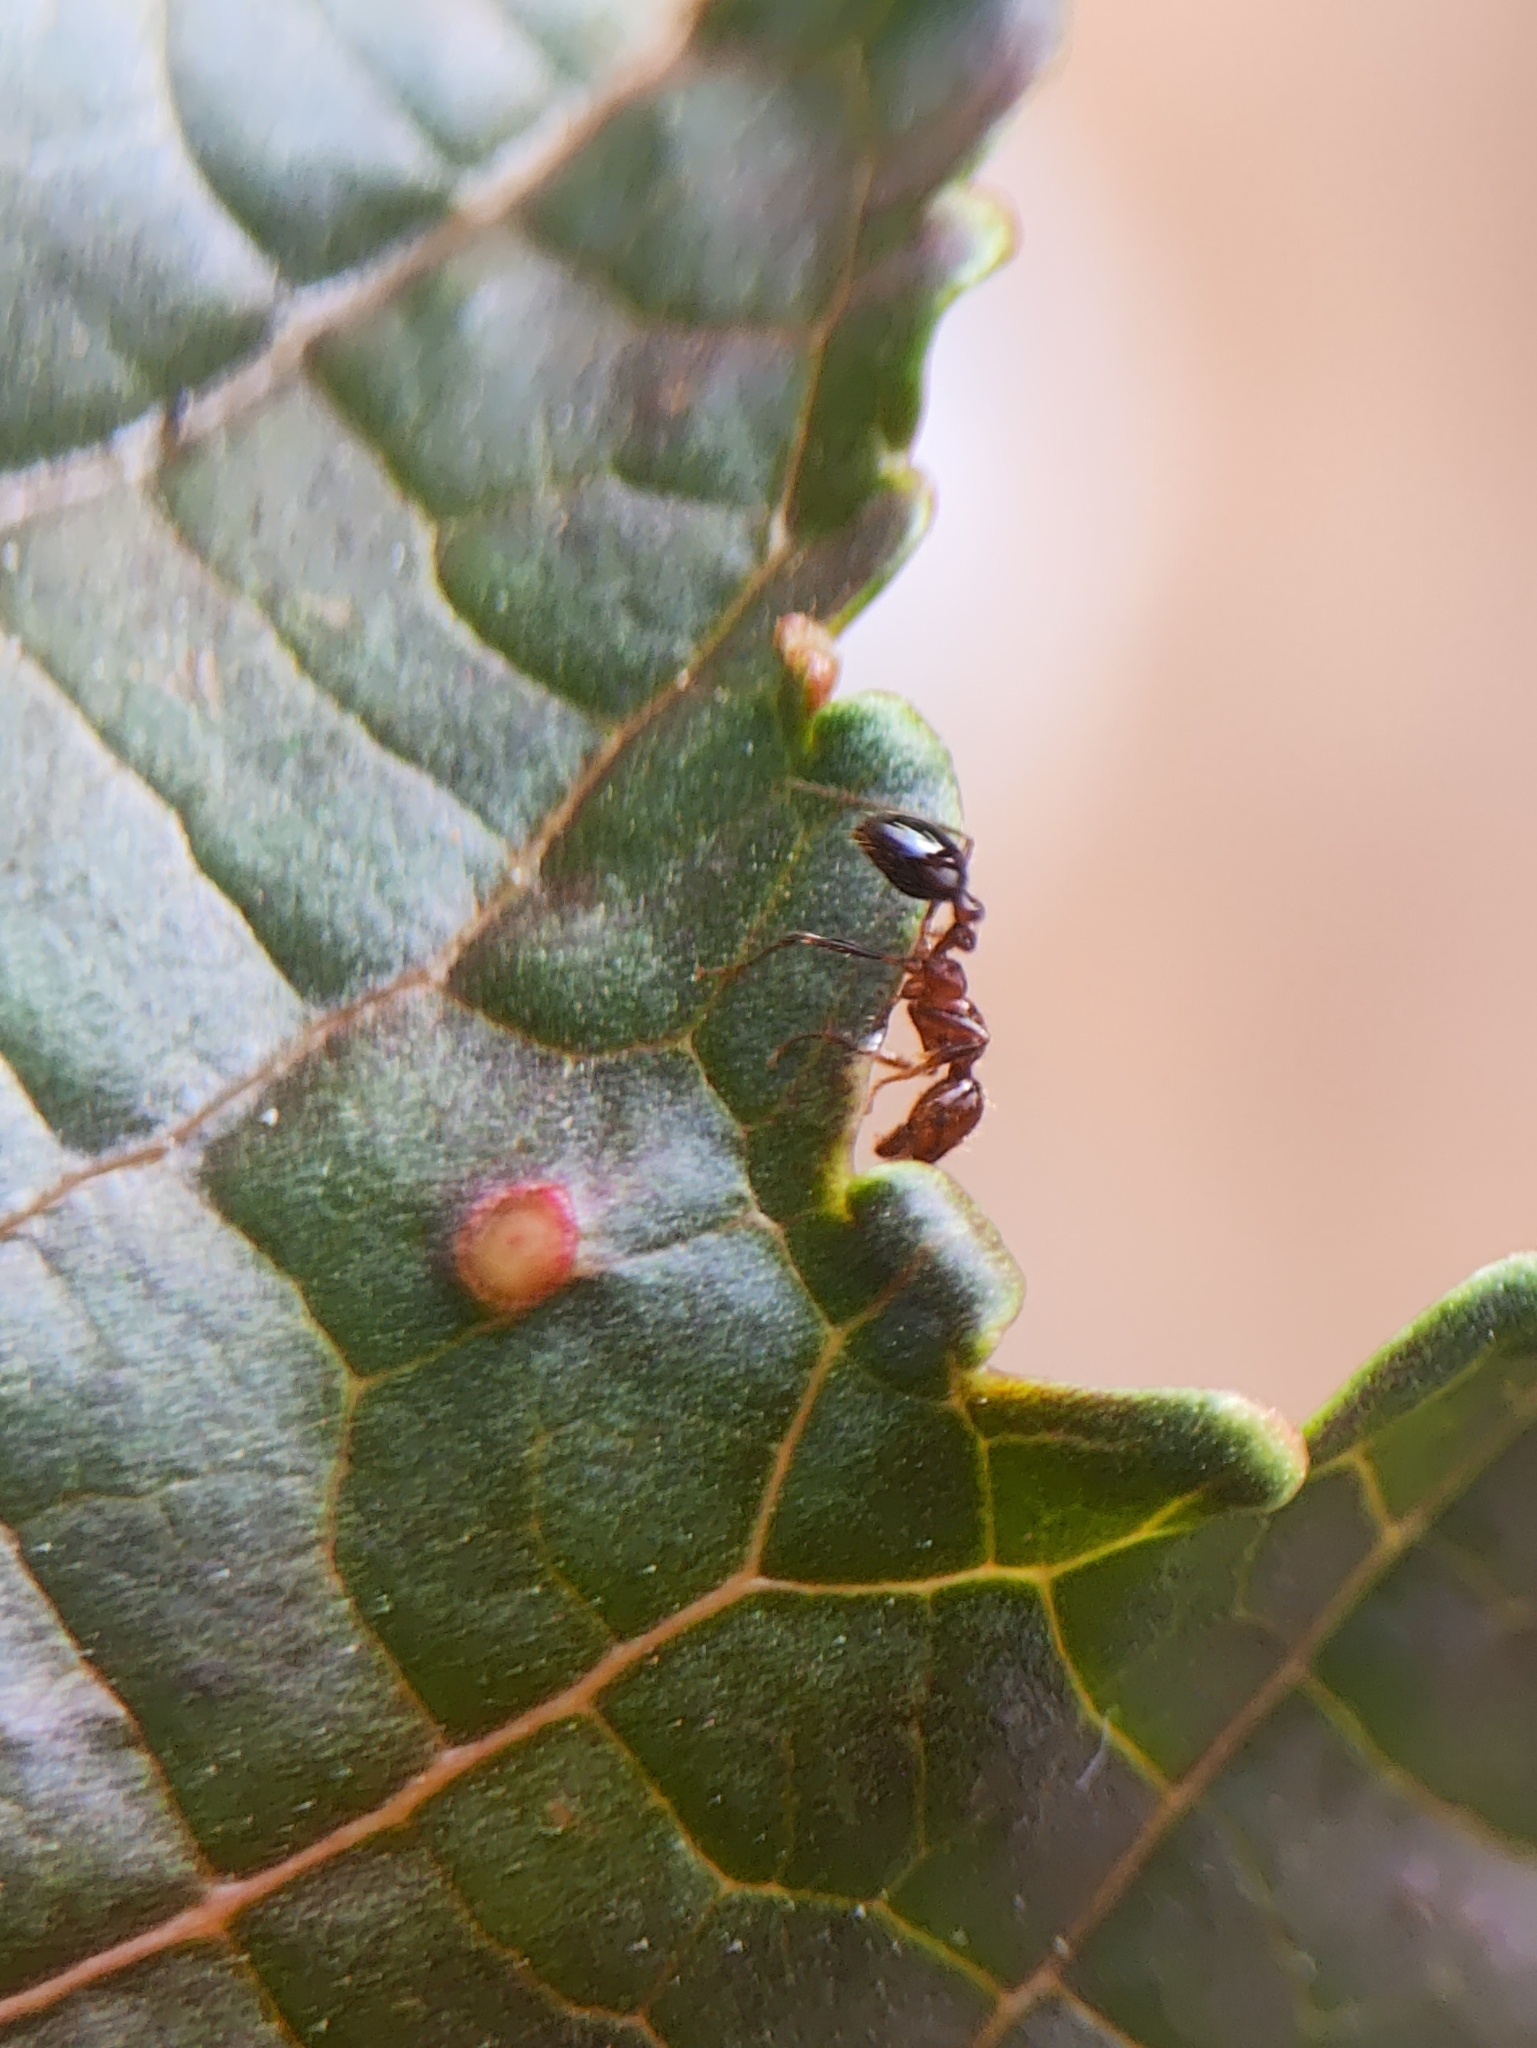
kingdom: Animalia
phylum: Arthropoda
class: Insecta
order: Hymenoptera
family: Formicidae
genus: Solenopsis
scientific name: Solenopsis geminata
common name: Tropical fire ant
